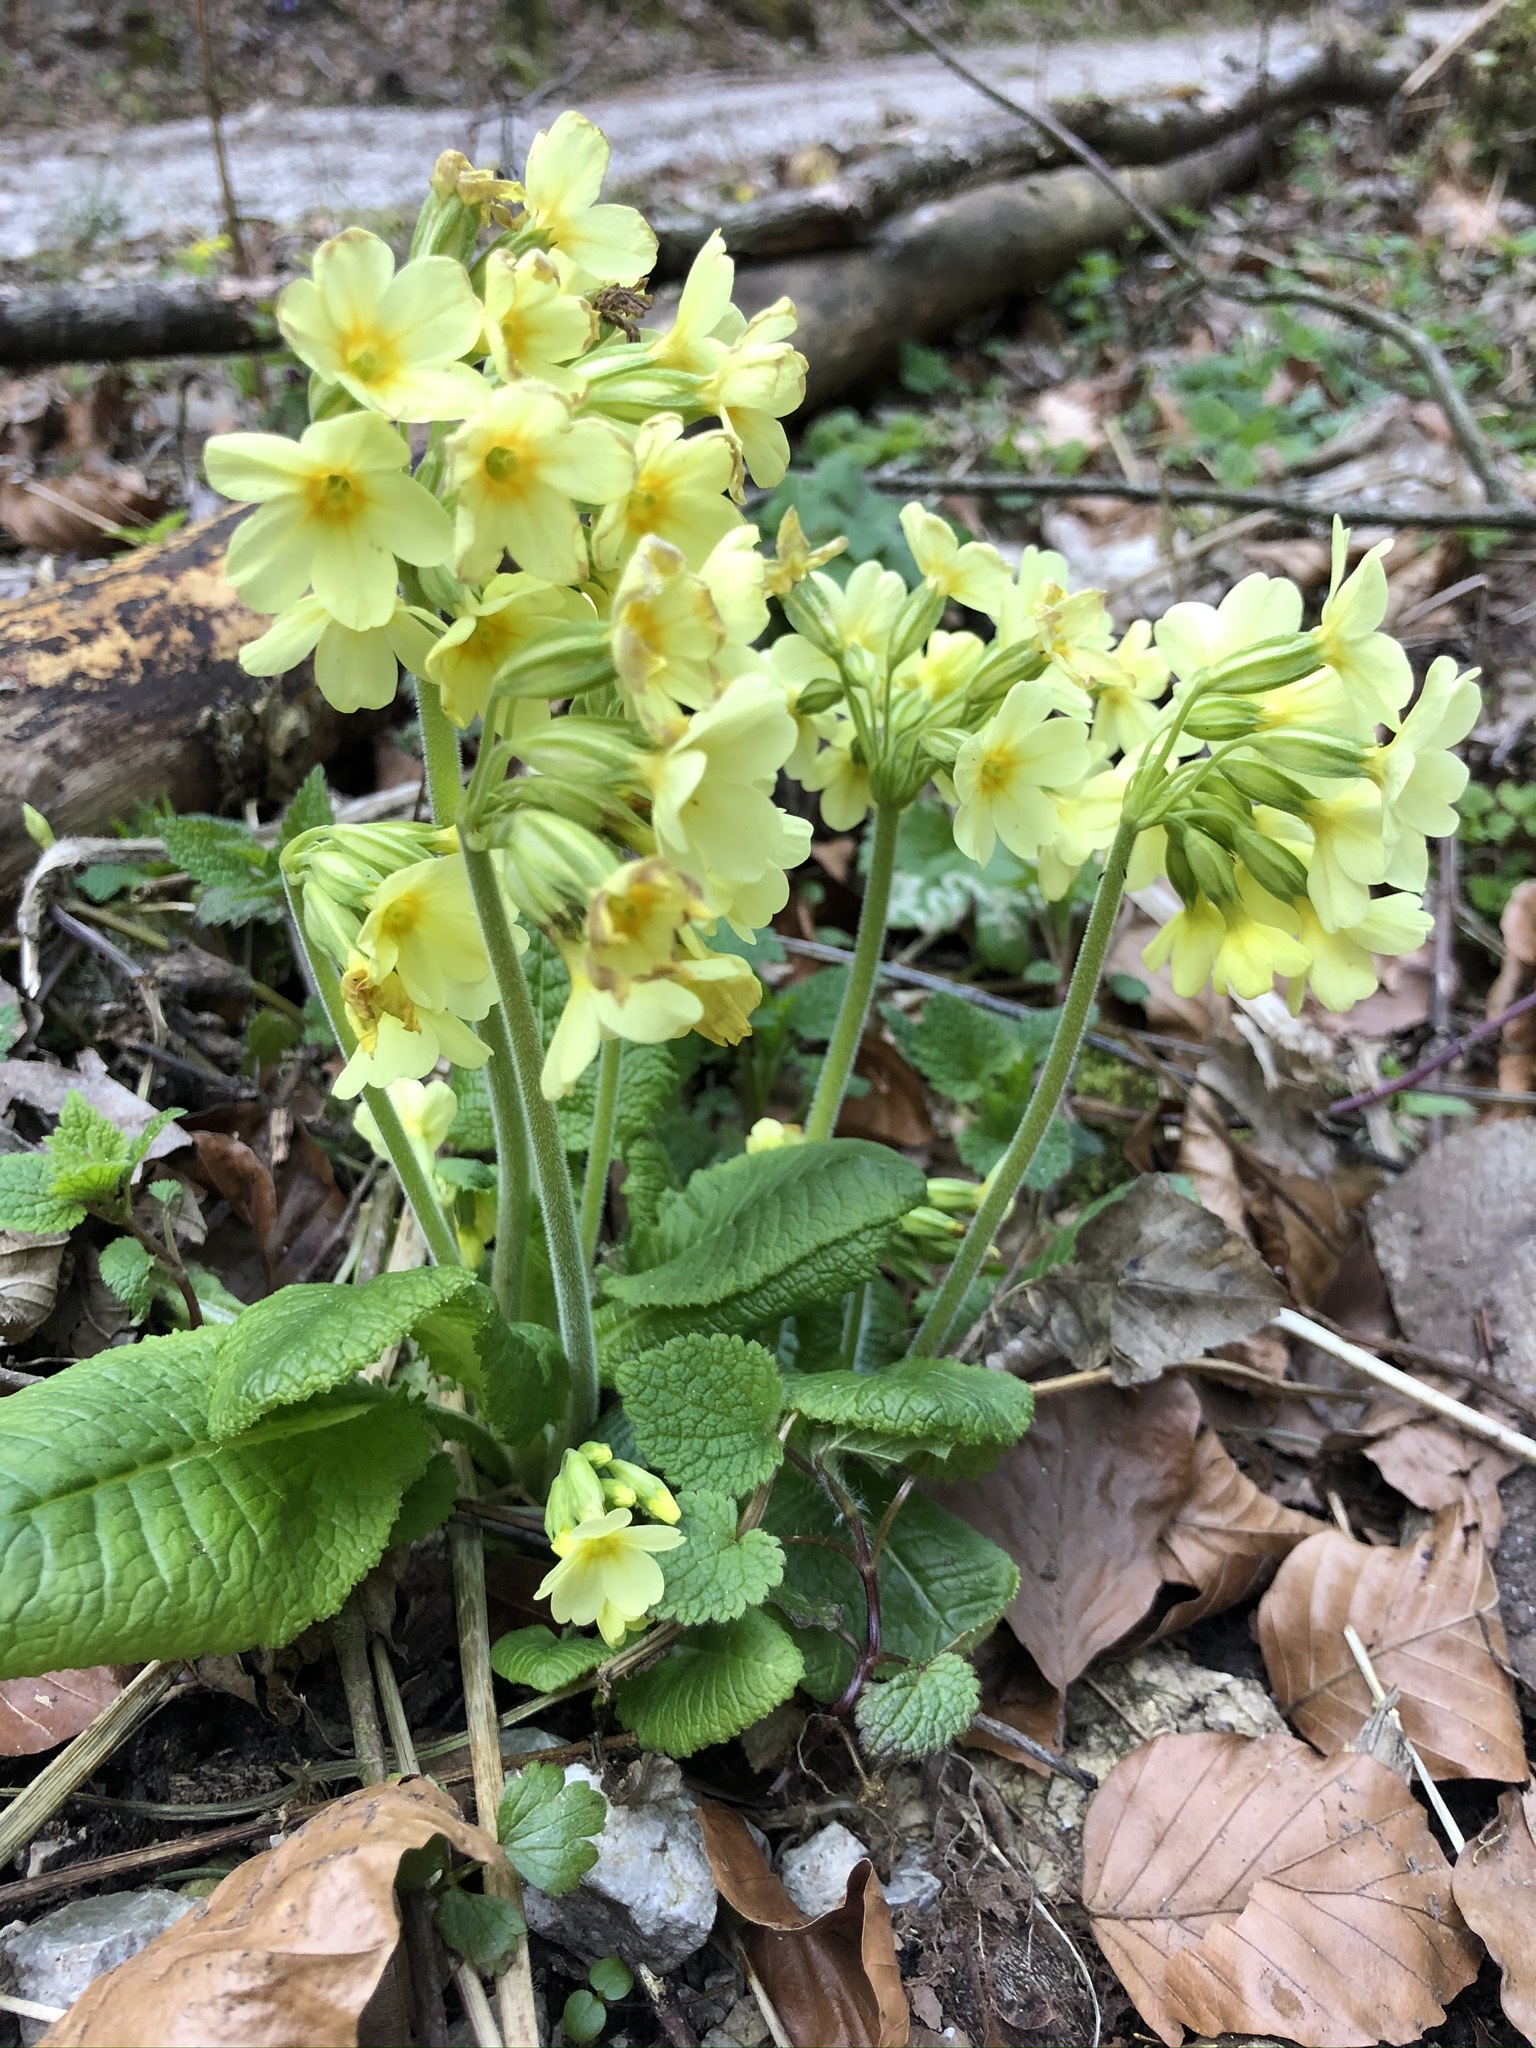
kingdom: Plantae
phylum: Tracheophyta
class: Magnoliopsida
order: Ericales
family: Primulaceae
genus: Primula
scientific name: Primula elatior
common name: Oxlip
